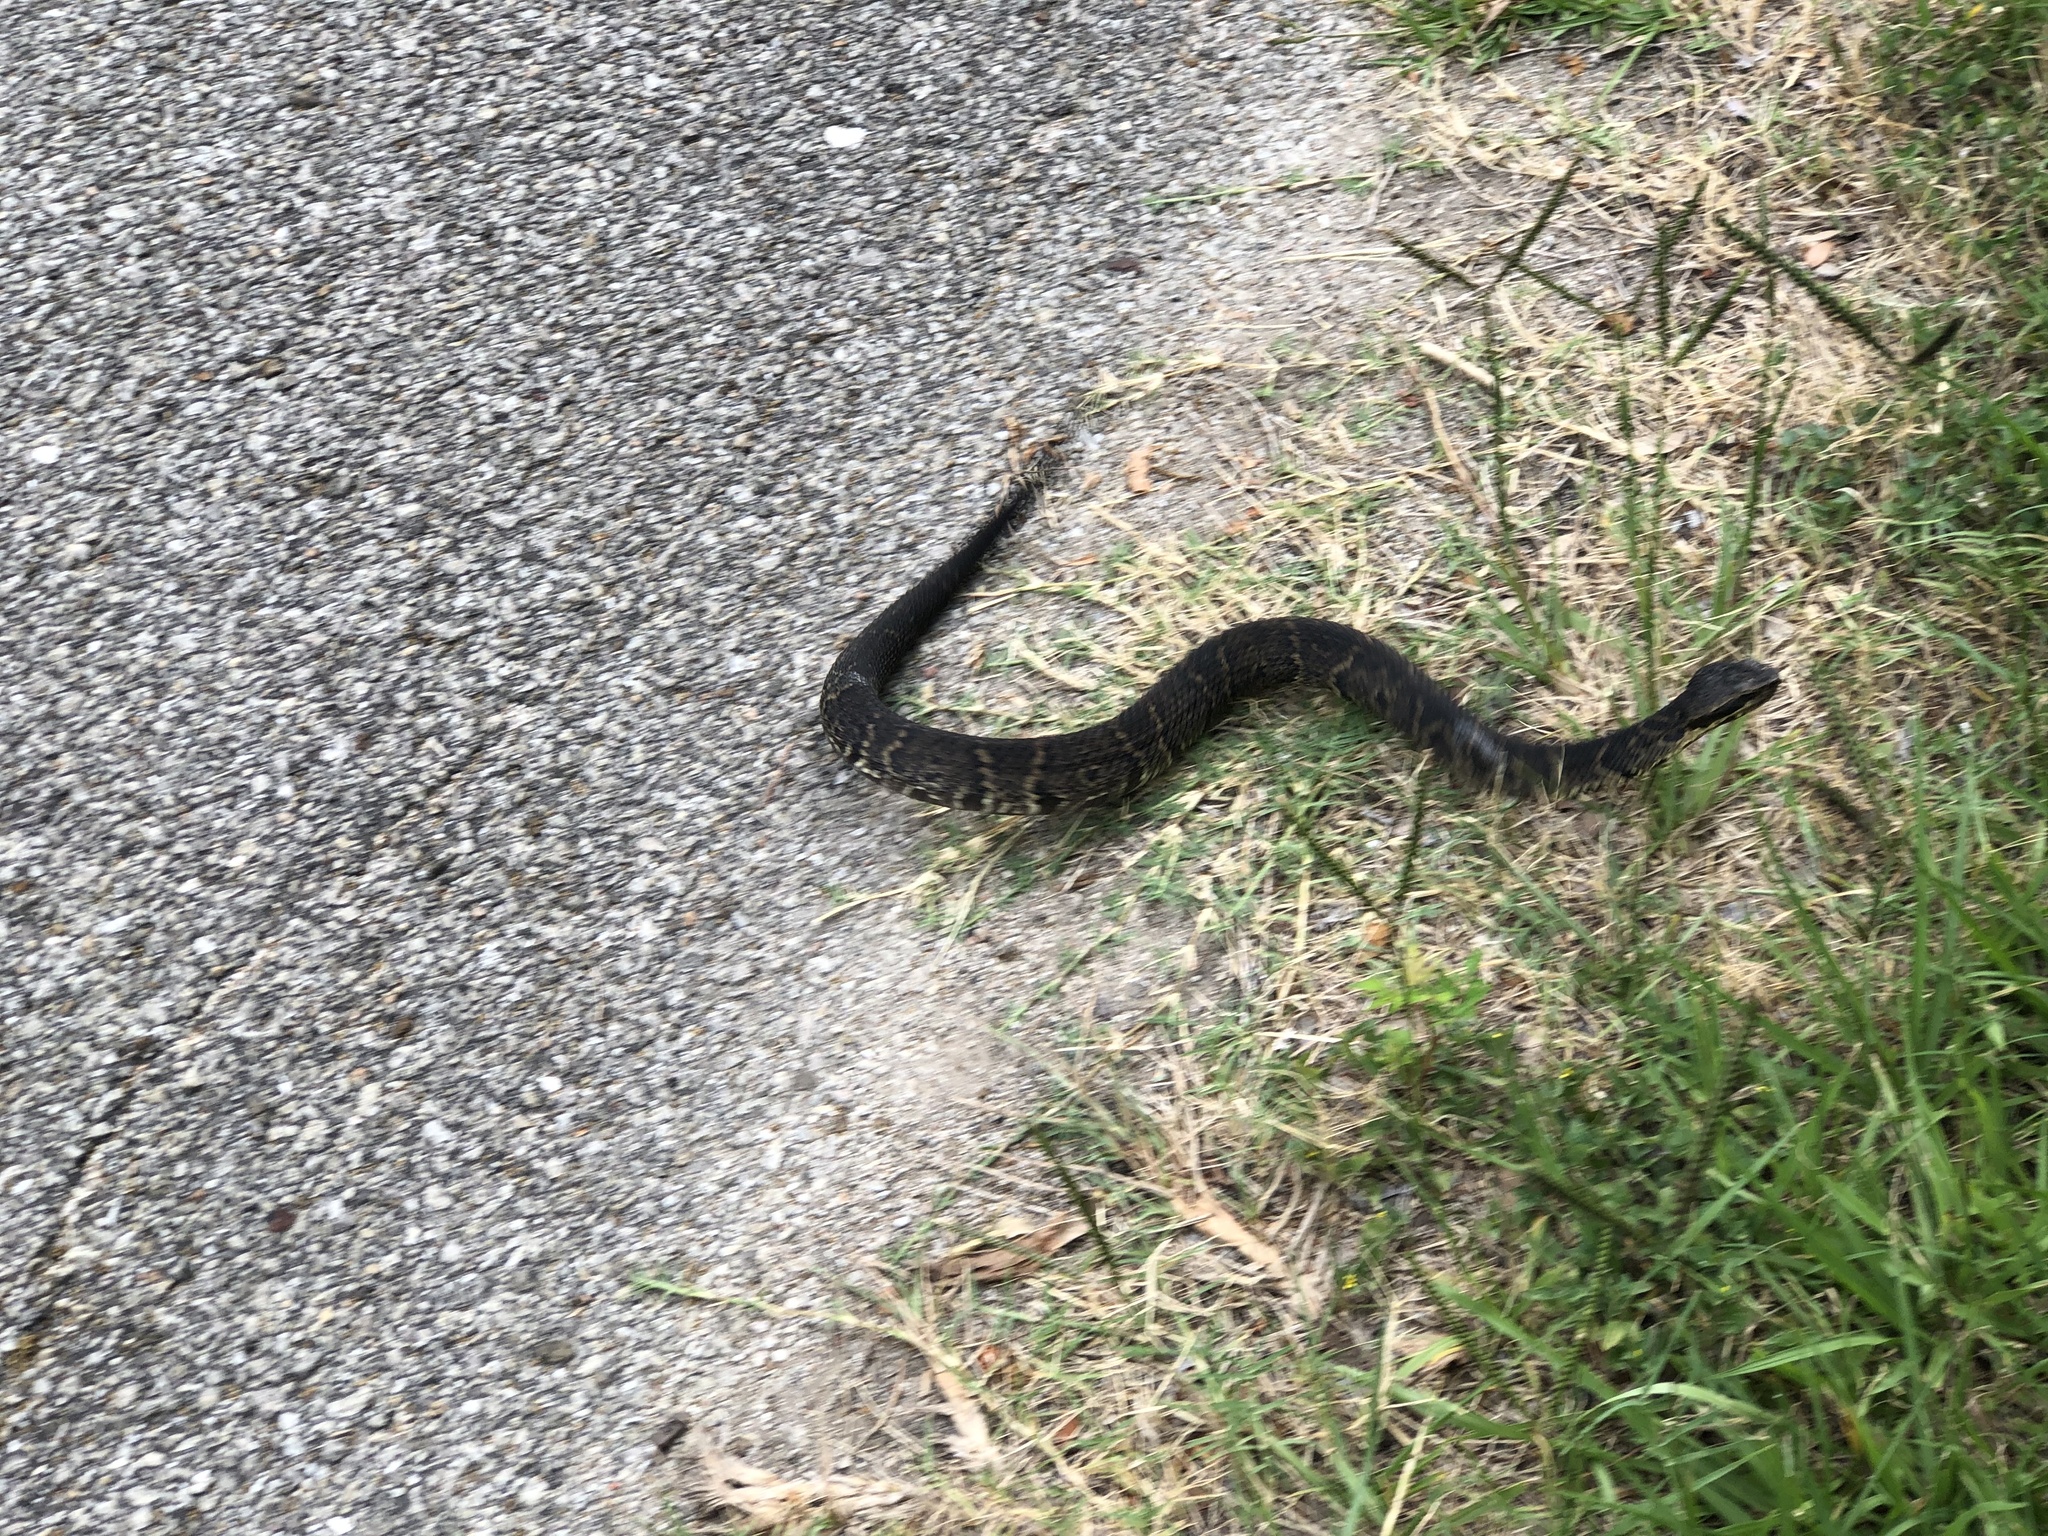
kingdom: Animalia
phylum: Chordata
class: Squamata
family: Viperidae
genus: Agkistrodon
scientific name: Agkistrodon piscivorus
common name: Cottonmouth
